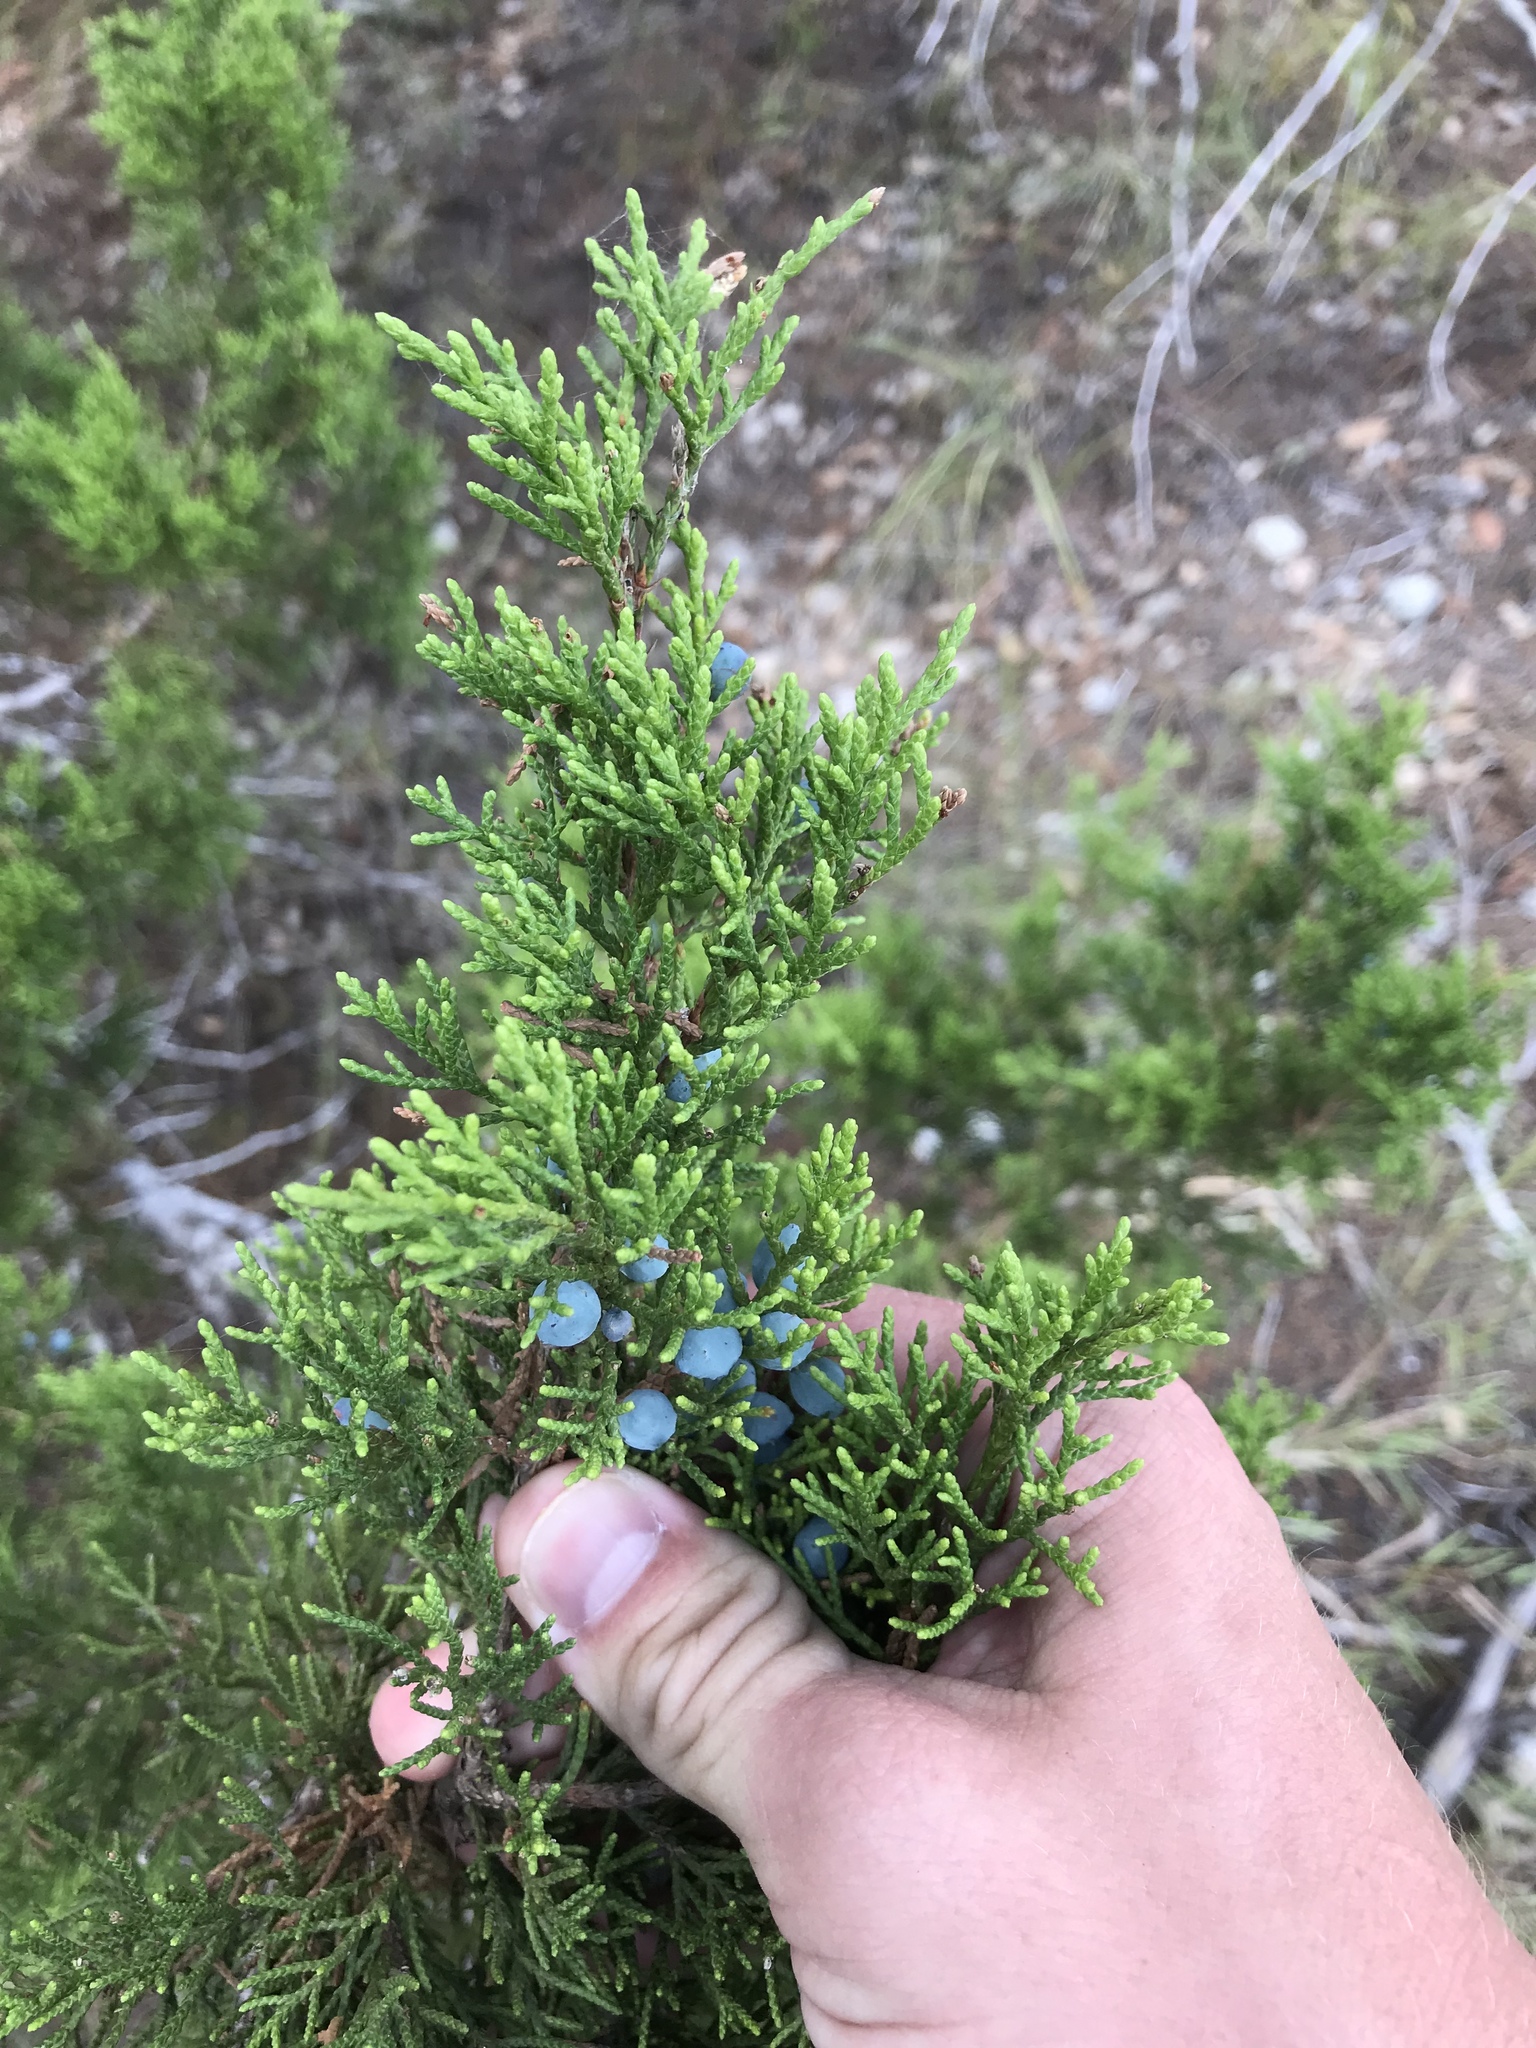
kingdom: Plantae
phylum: Tracheophyta
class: Pinopsida
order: Pinales
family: Cupressaceae
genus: Juniperus
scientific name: Juniperus ashei
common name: Mexican juniper
